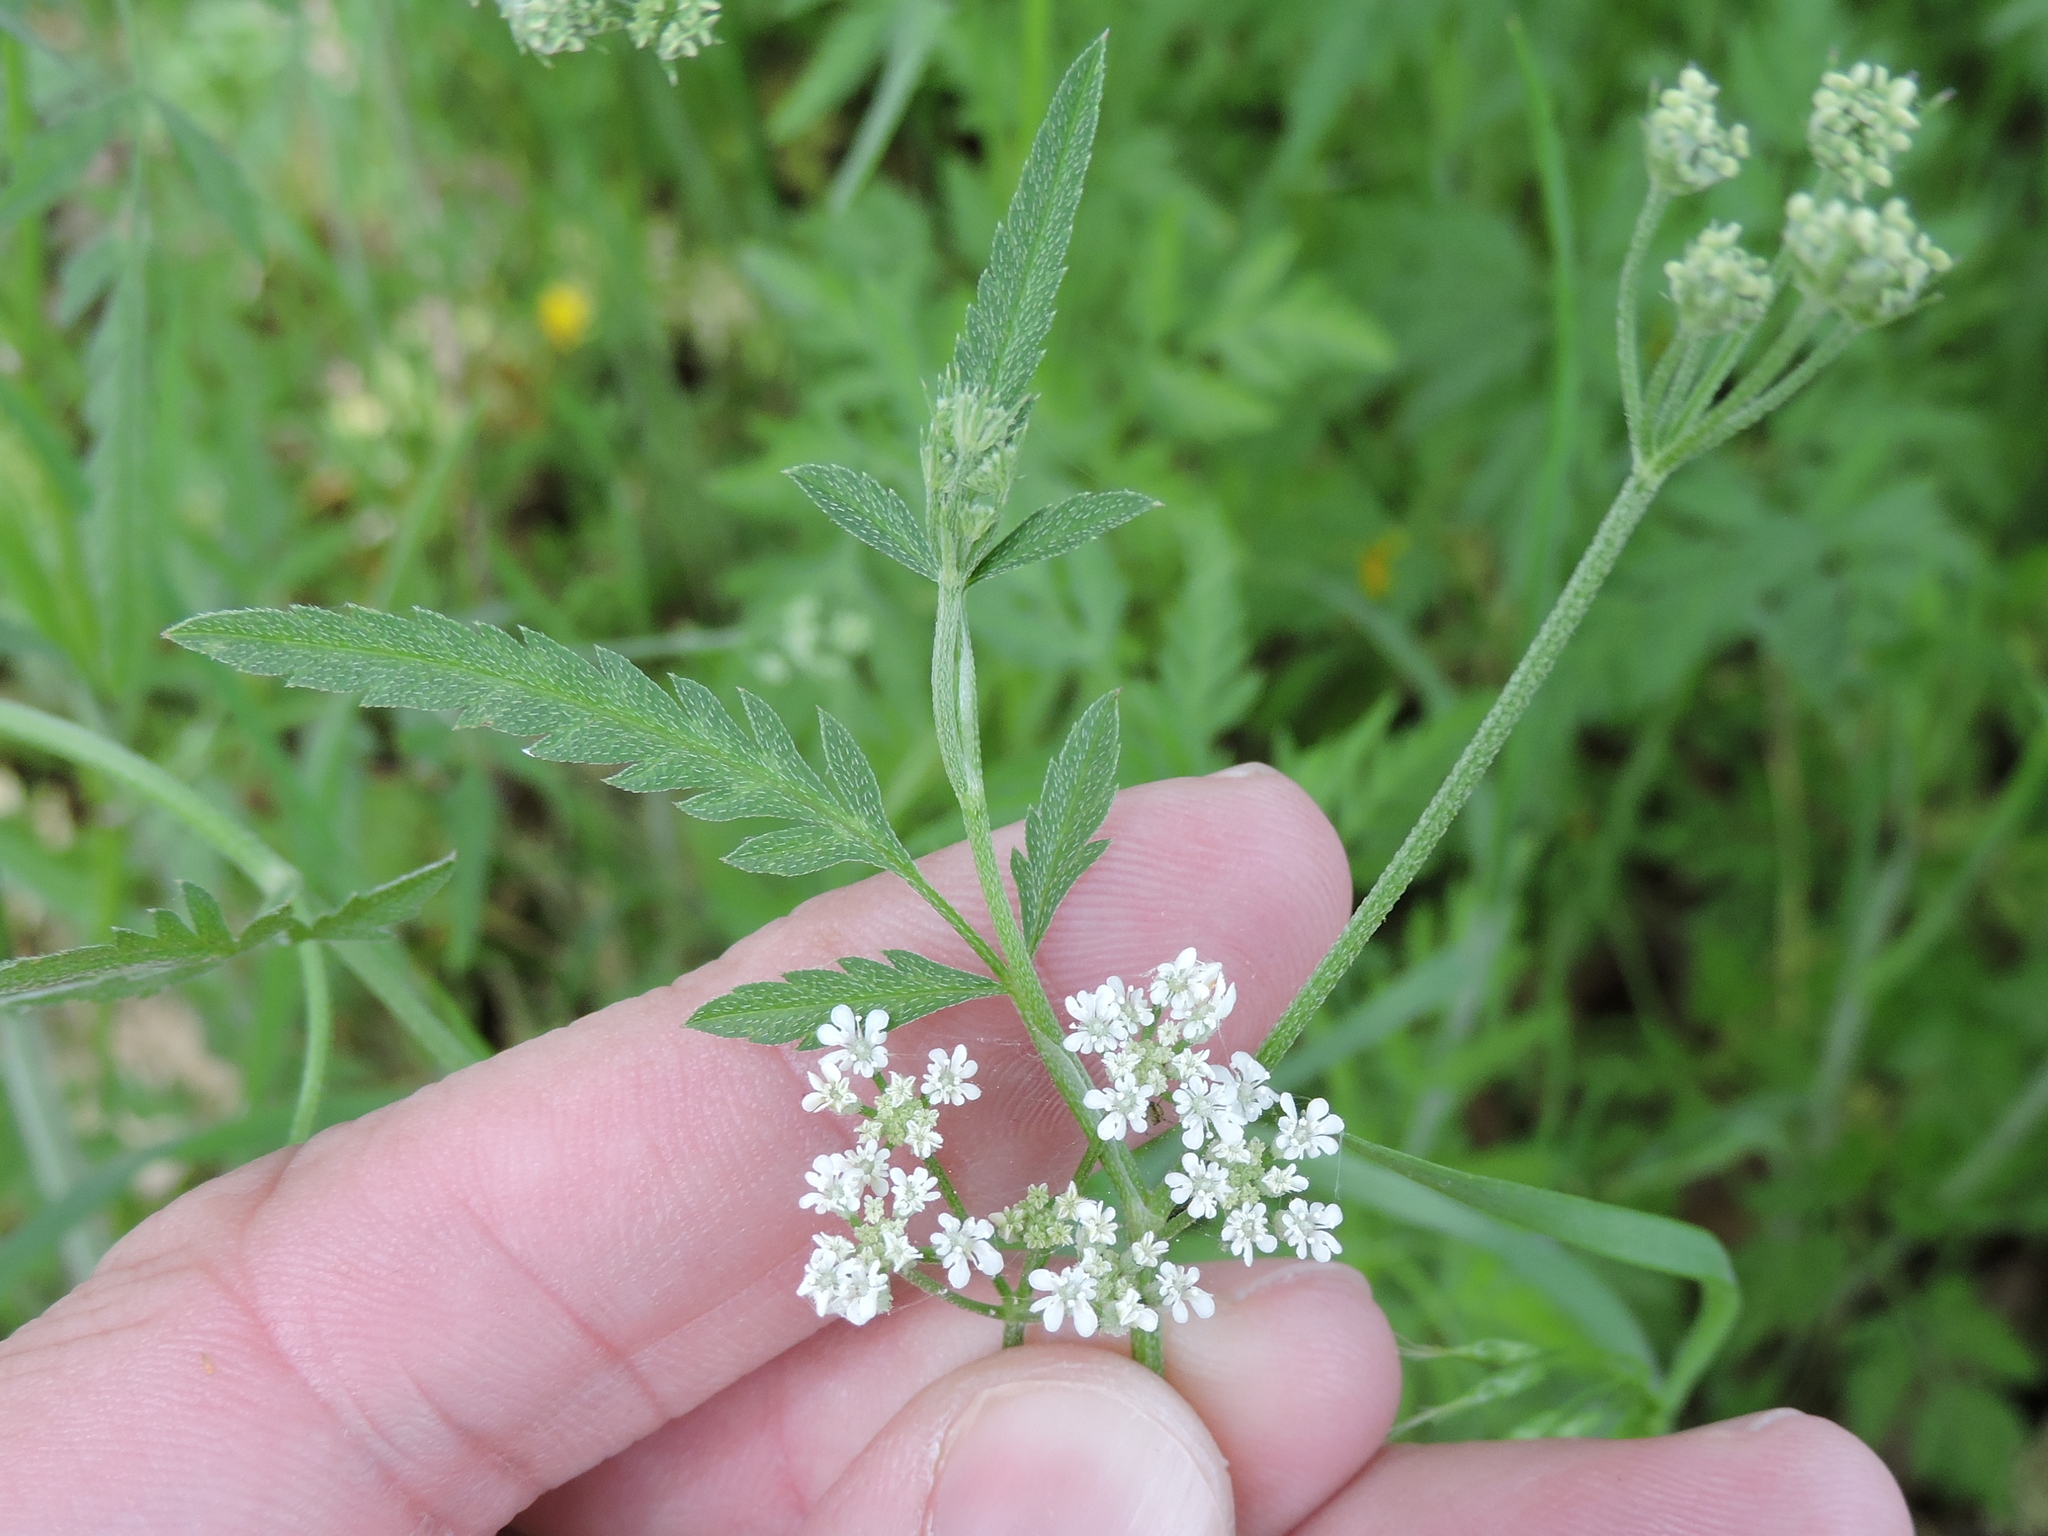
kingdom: Plantae
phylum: Tracheophyta
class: Magnoliopsida
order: Apiales
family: Apiaceae
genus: Torilis
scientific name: Torilis arvensis
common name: Spreading hedge-parsley
